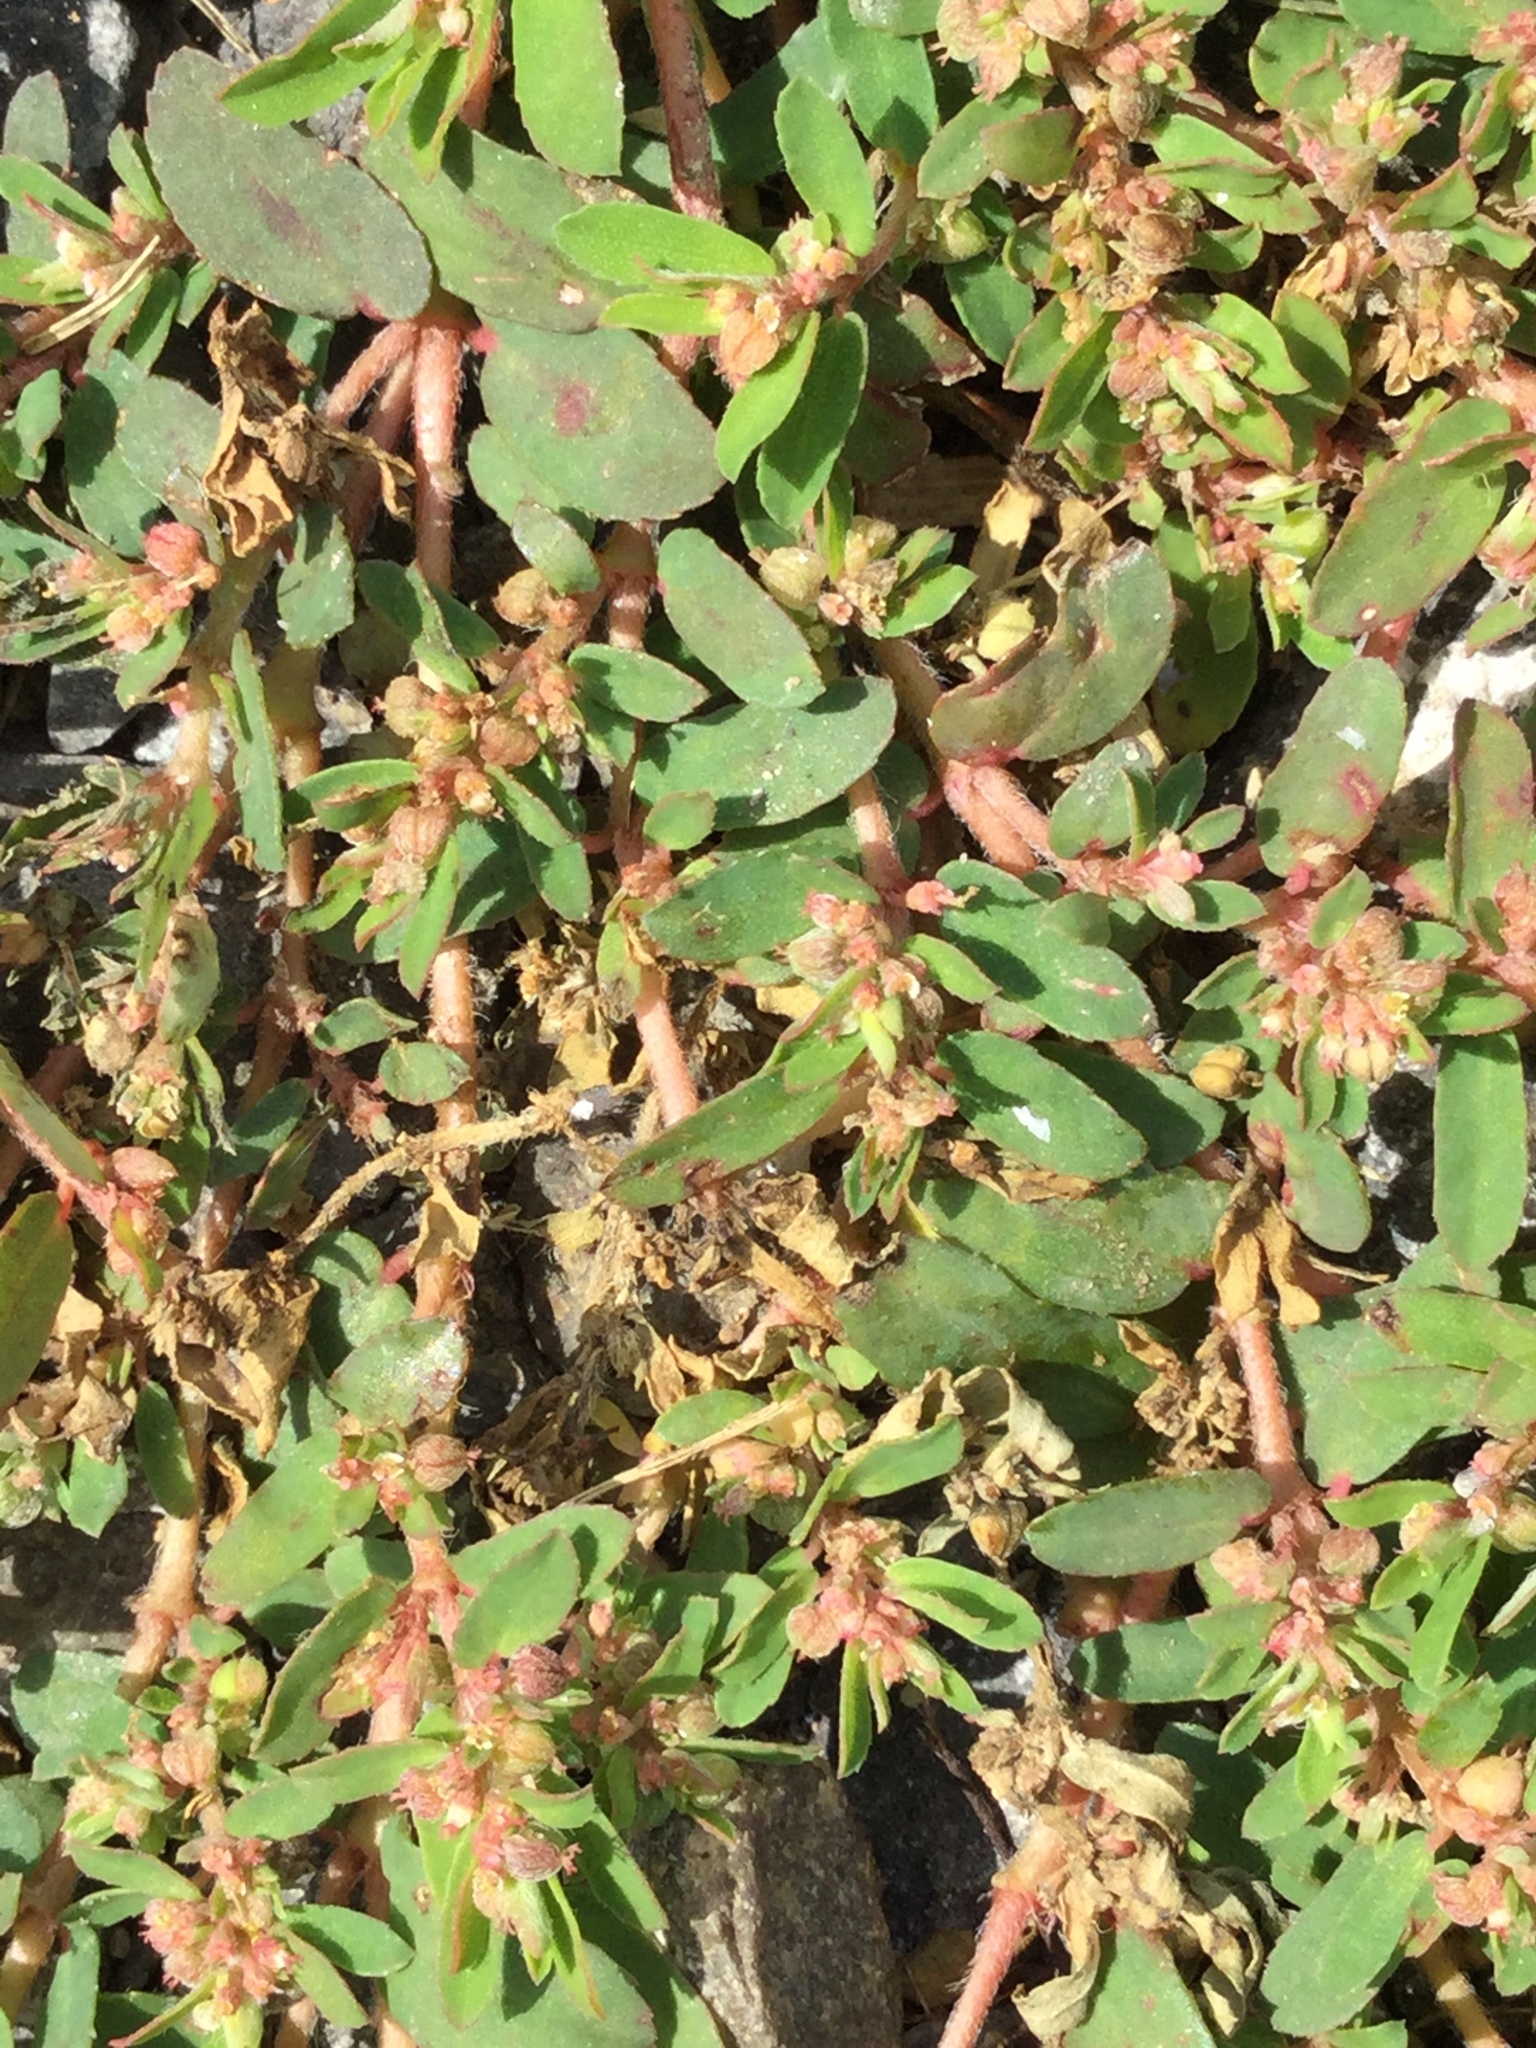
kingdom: Plantae
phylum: Tracheophyta
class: Magnoliopsida
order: Malpighiales
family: Euphorbiaceae
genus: Euphorbia
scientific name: Euphorbia maculata
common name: Spotted spurge
